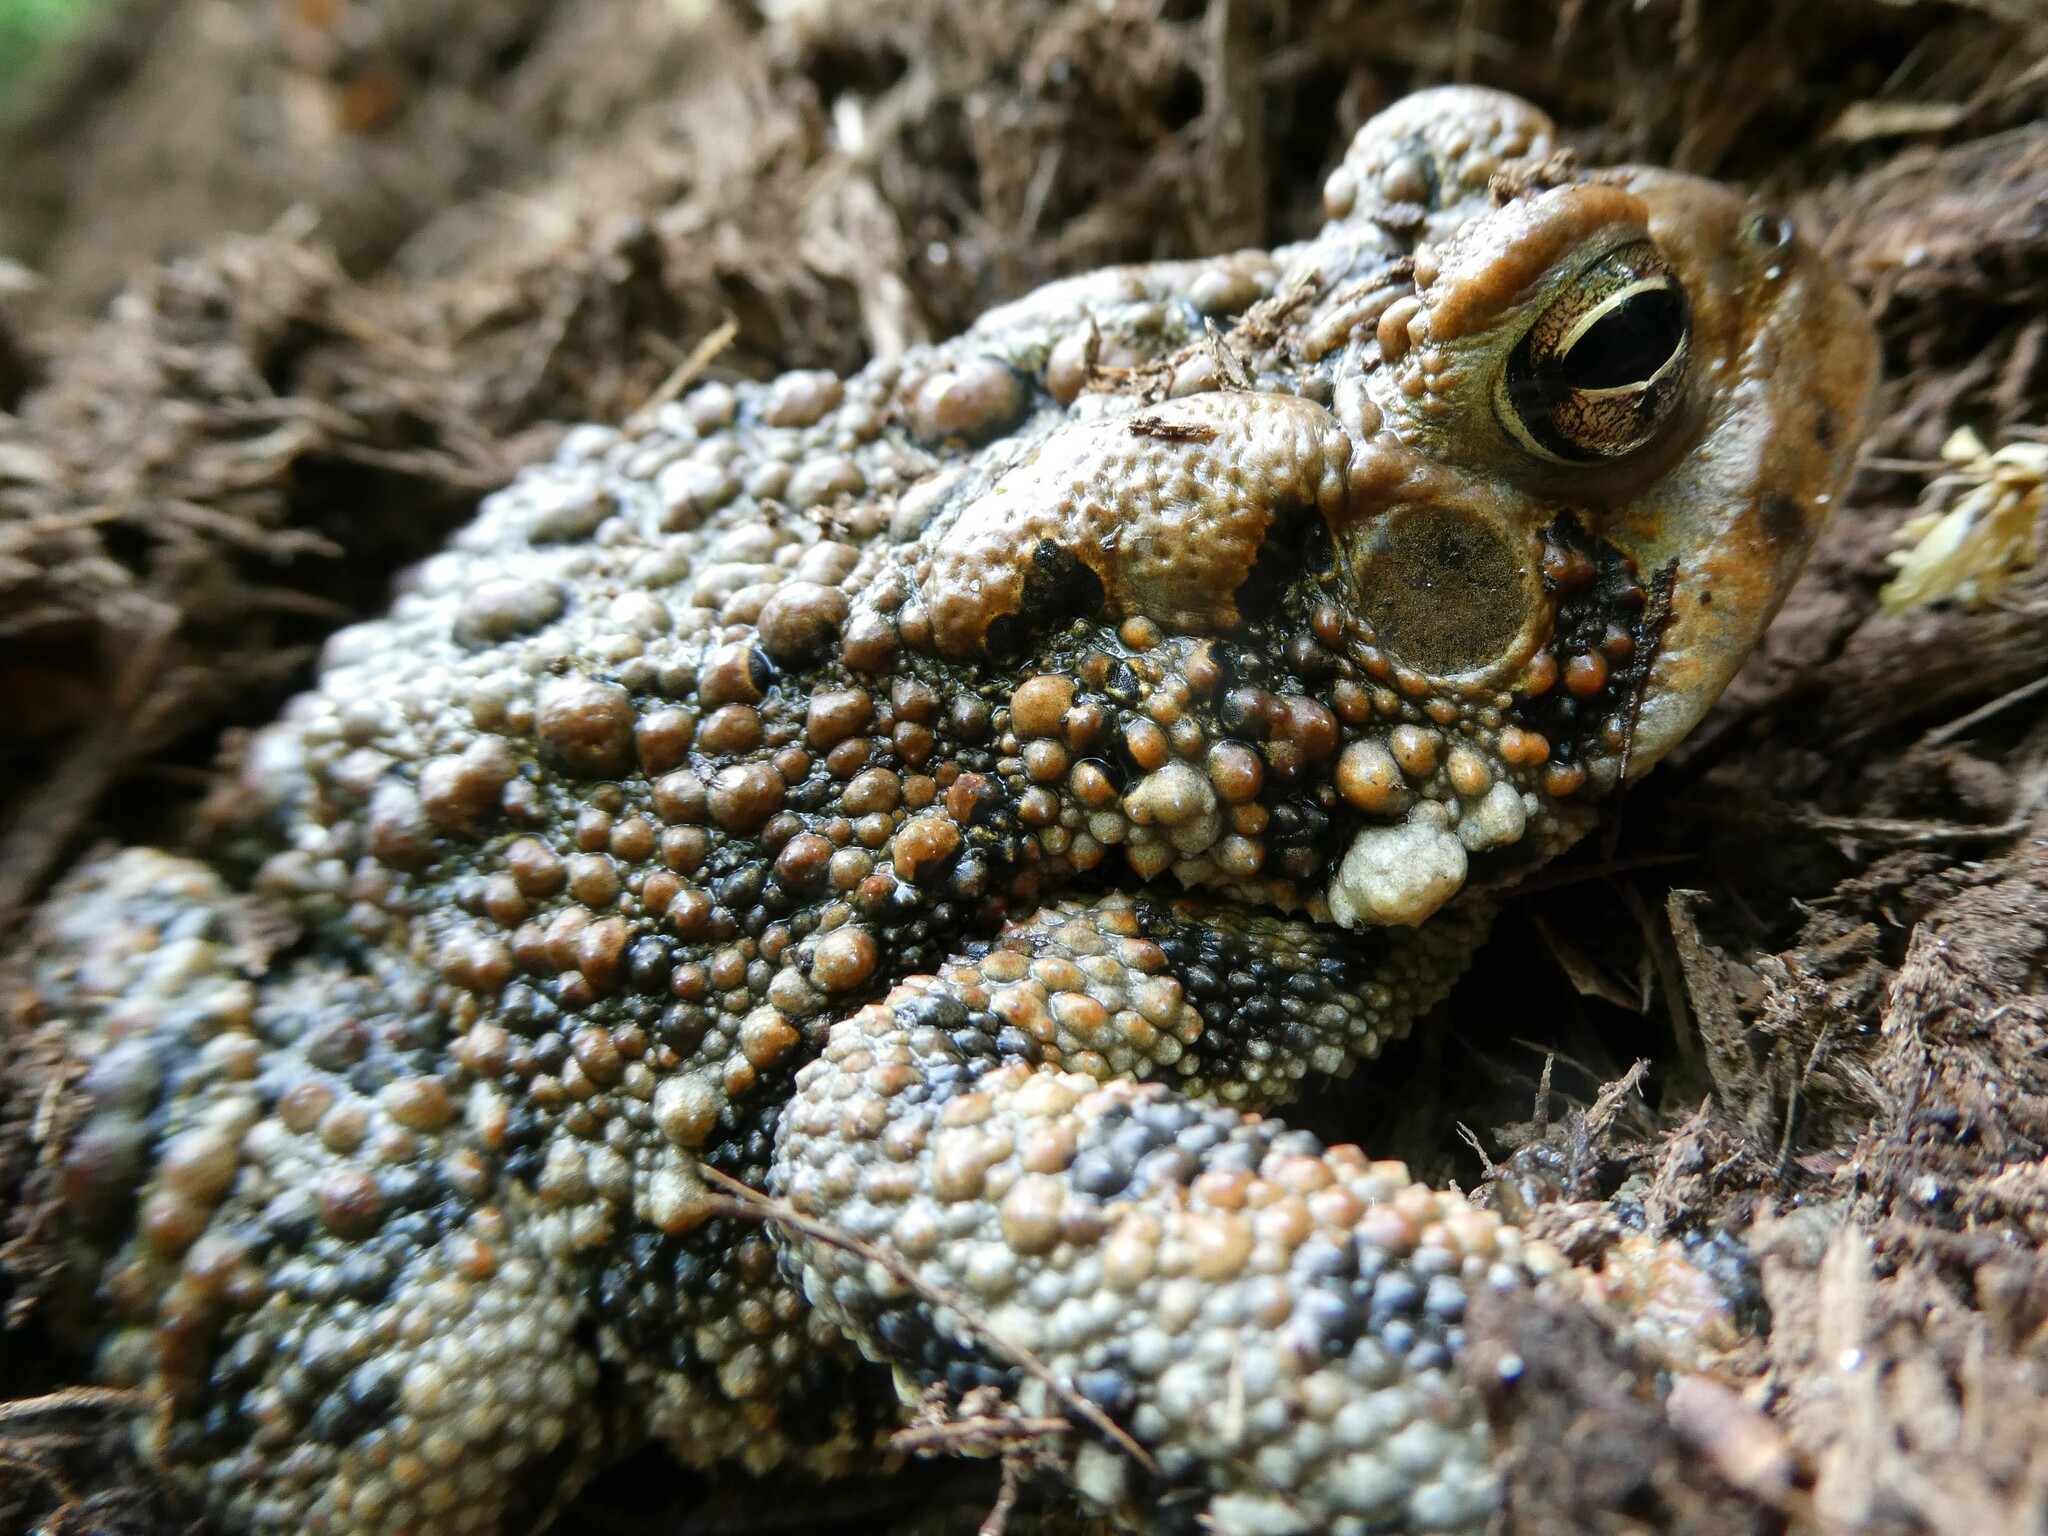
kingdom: Animalia
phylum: Chordata
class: Amphibia
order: Anura
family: Bufonidae
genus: Anaxyrus
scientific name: Anaxyrus americanus
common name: American toad
